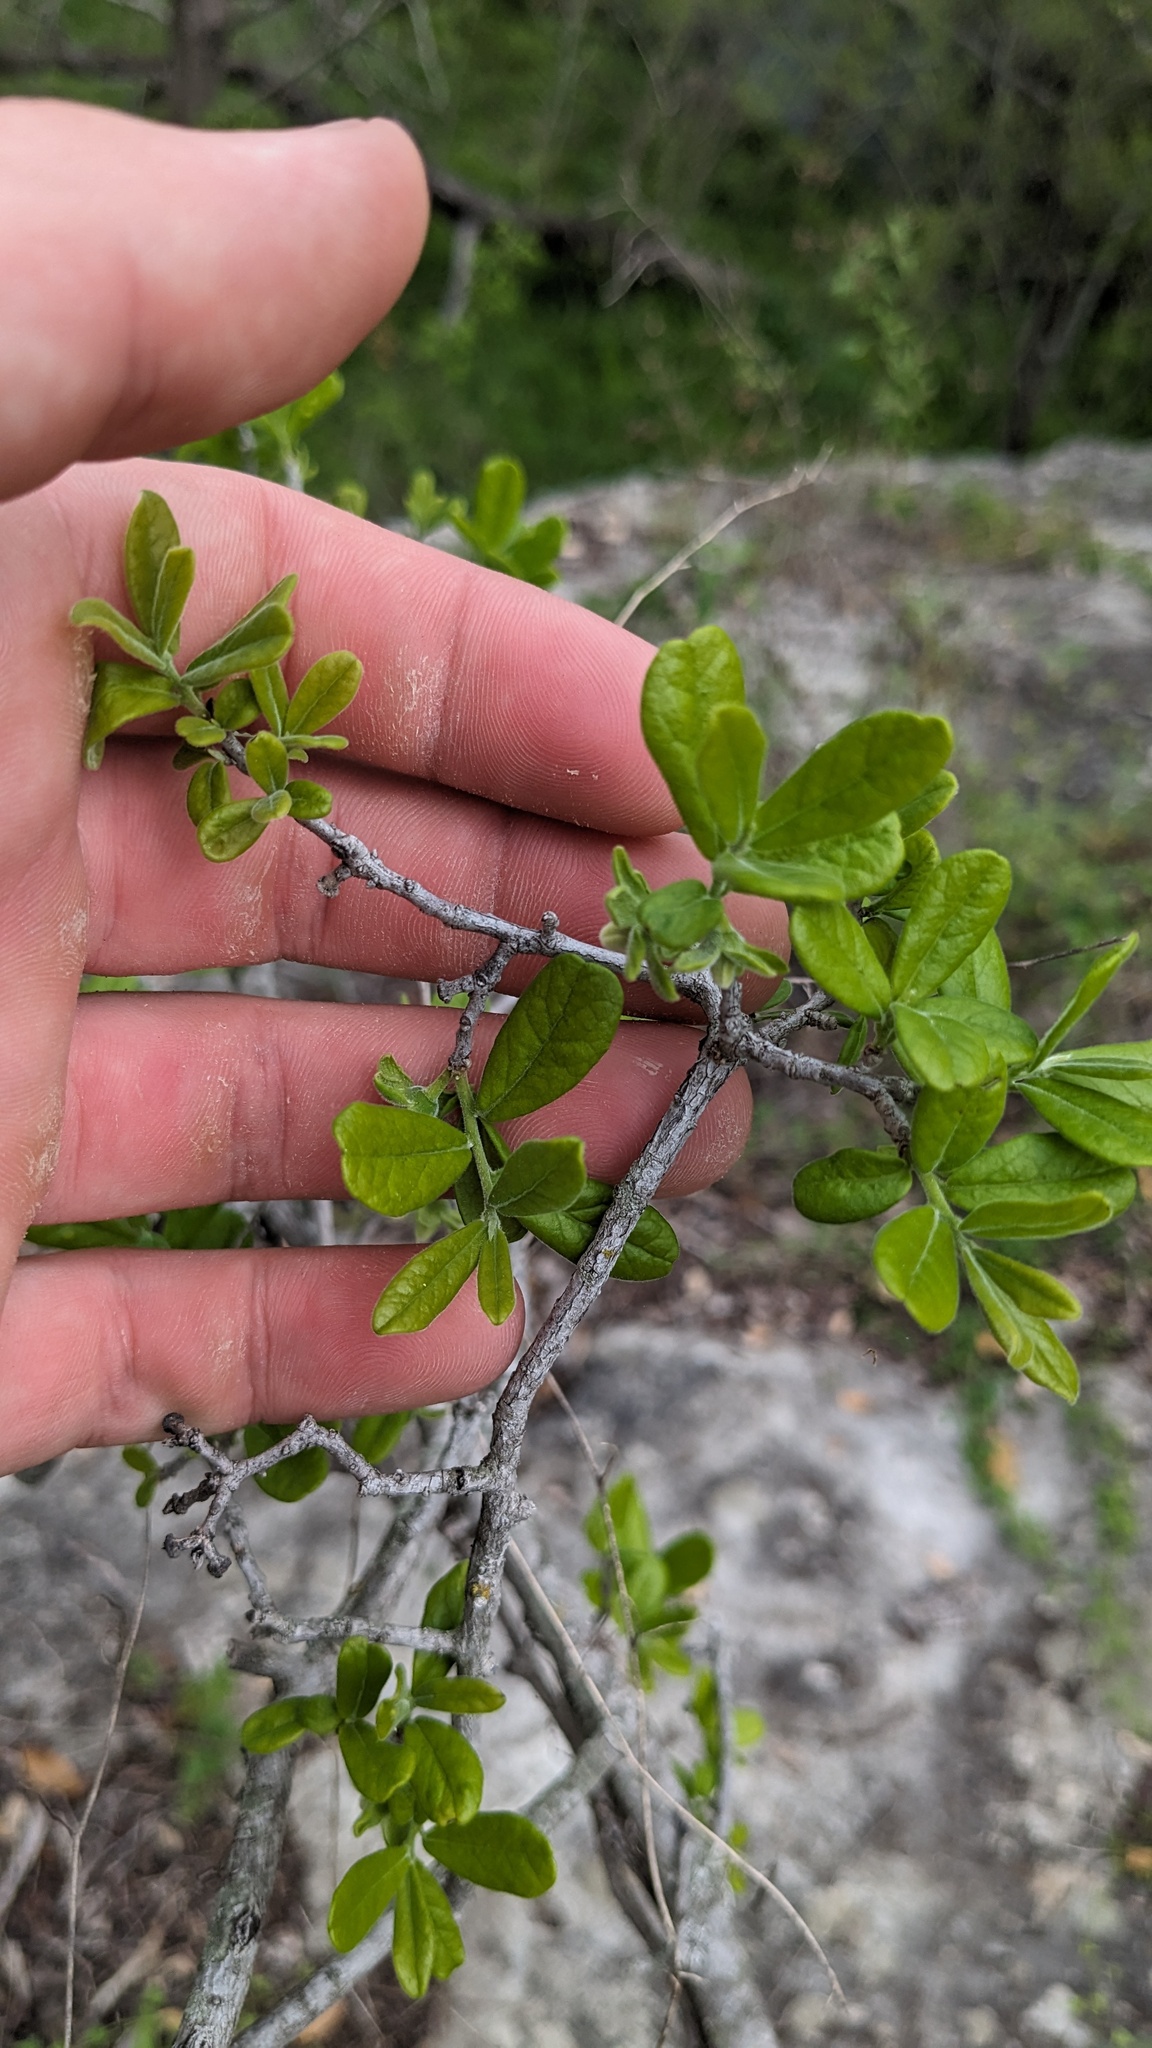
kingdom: Plantae
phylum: Tracheophyta
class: Magnoliopsida
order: Ericales
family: Ebenaceae
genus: Diospyros
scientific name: Diospyros texana
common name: Texas persimmon
